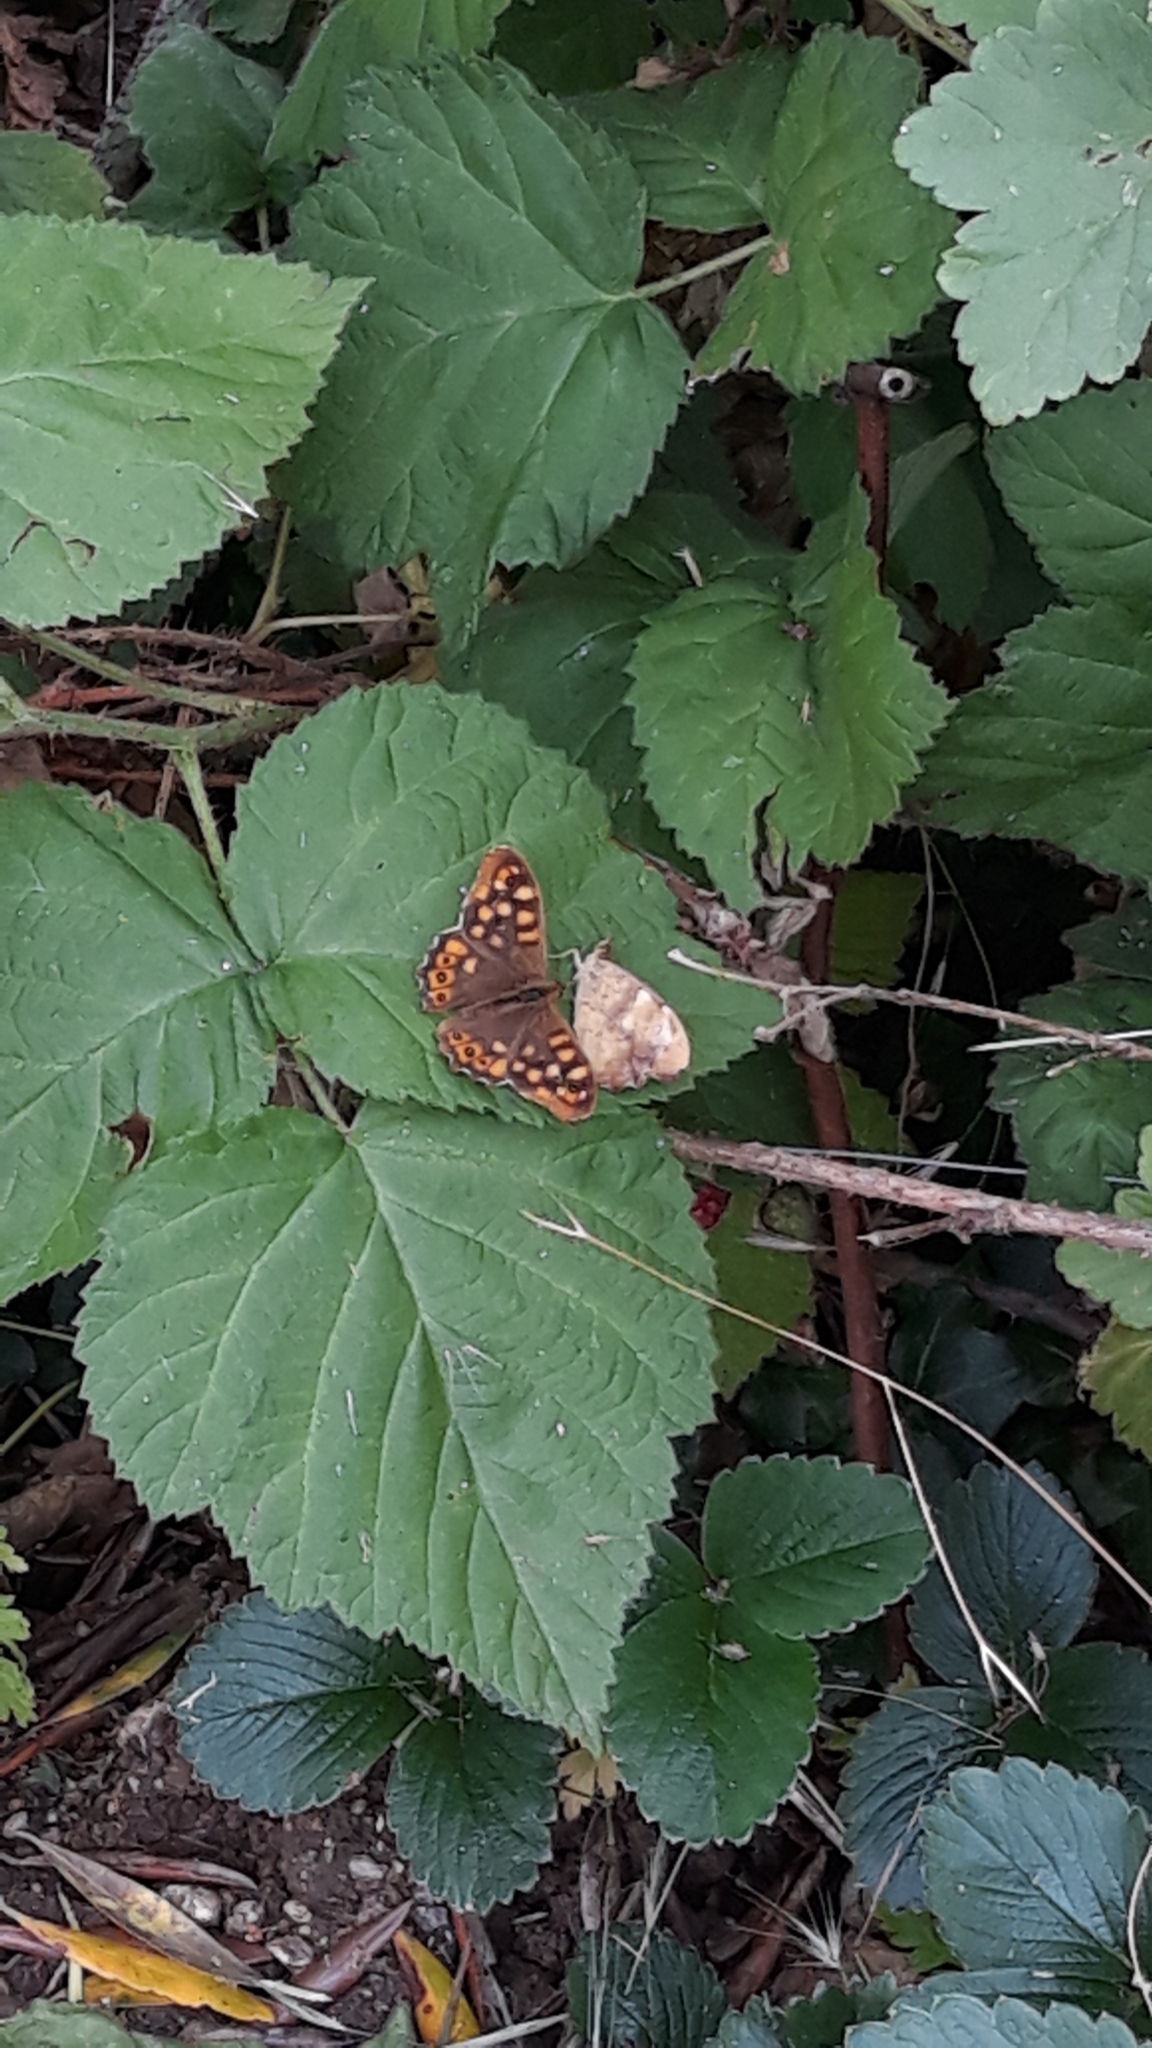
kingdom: Animalia
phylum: Arthropoda
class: Insecta
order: Lepidoptera
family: Nymphalidae
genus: Pararge
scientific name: Pararge aegeria
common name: Speckled wood
